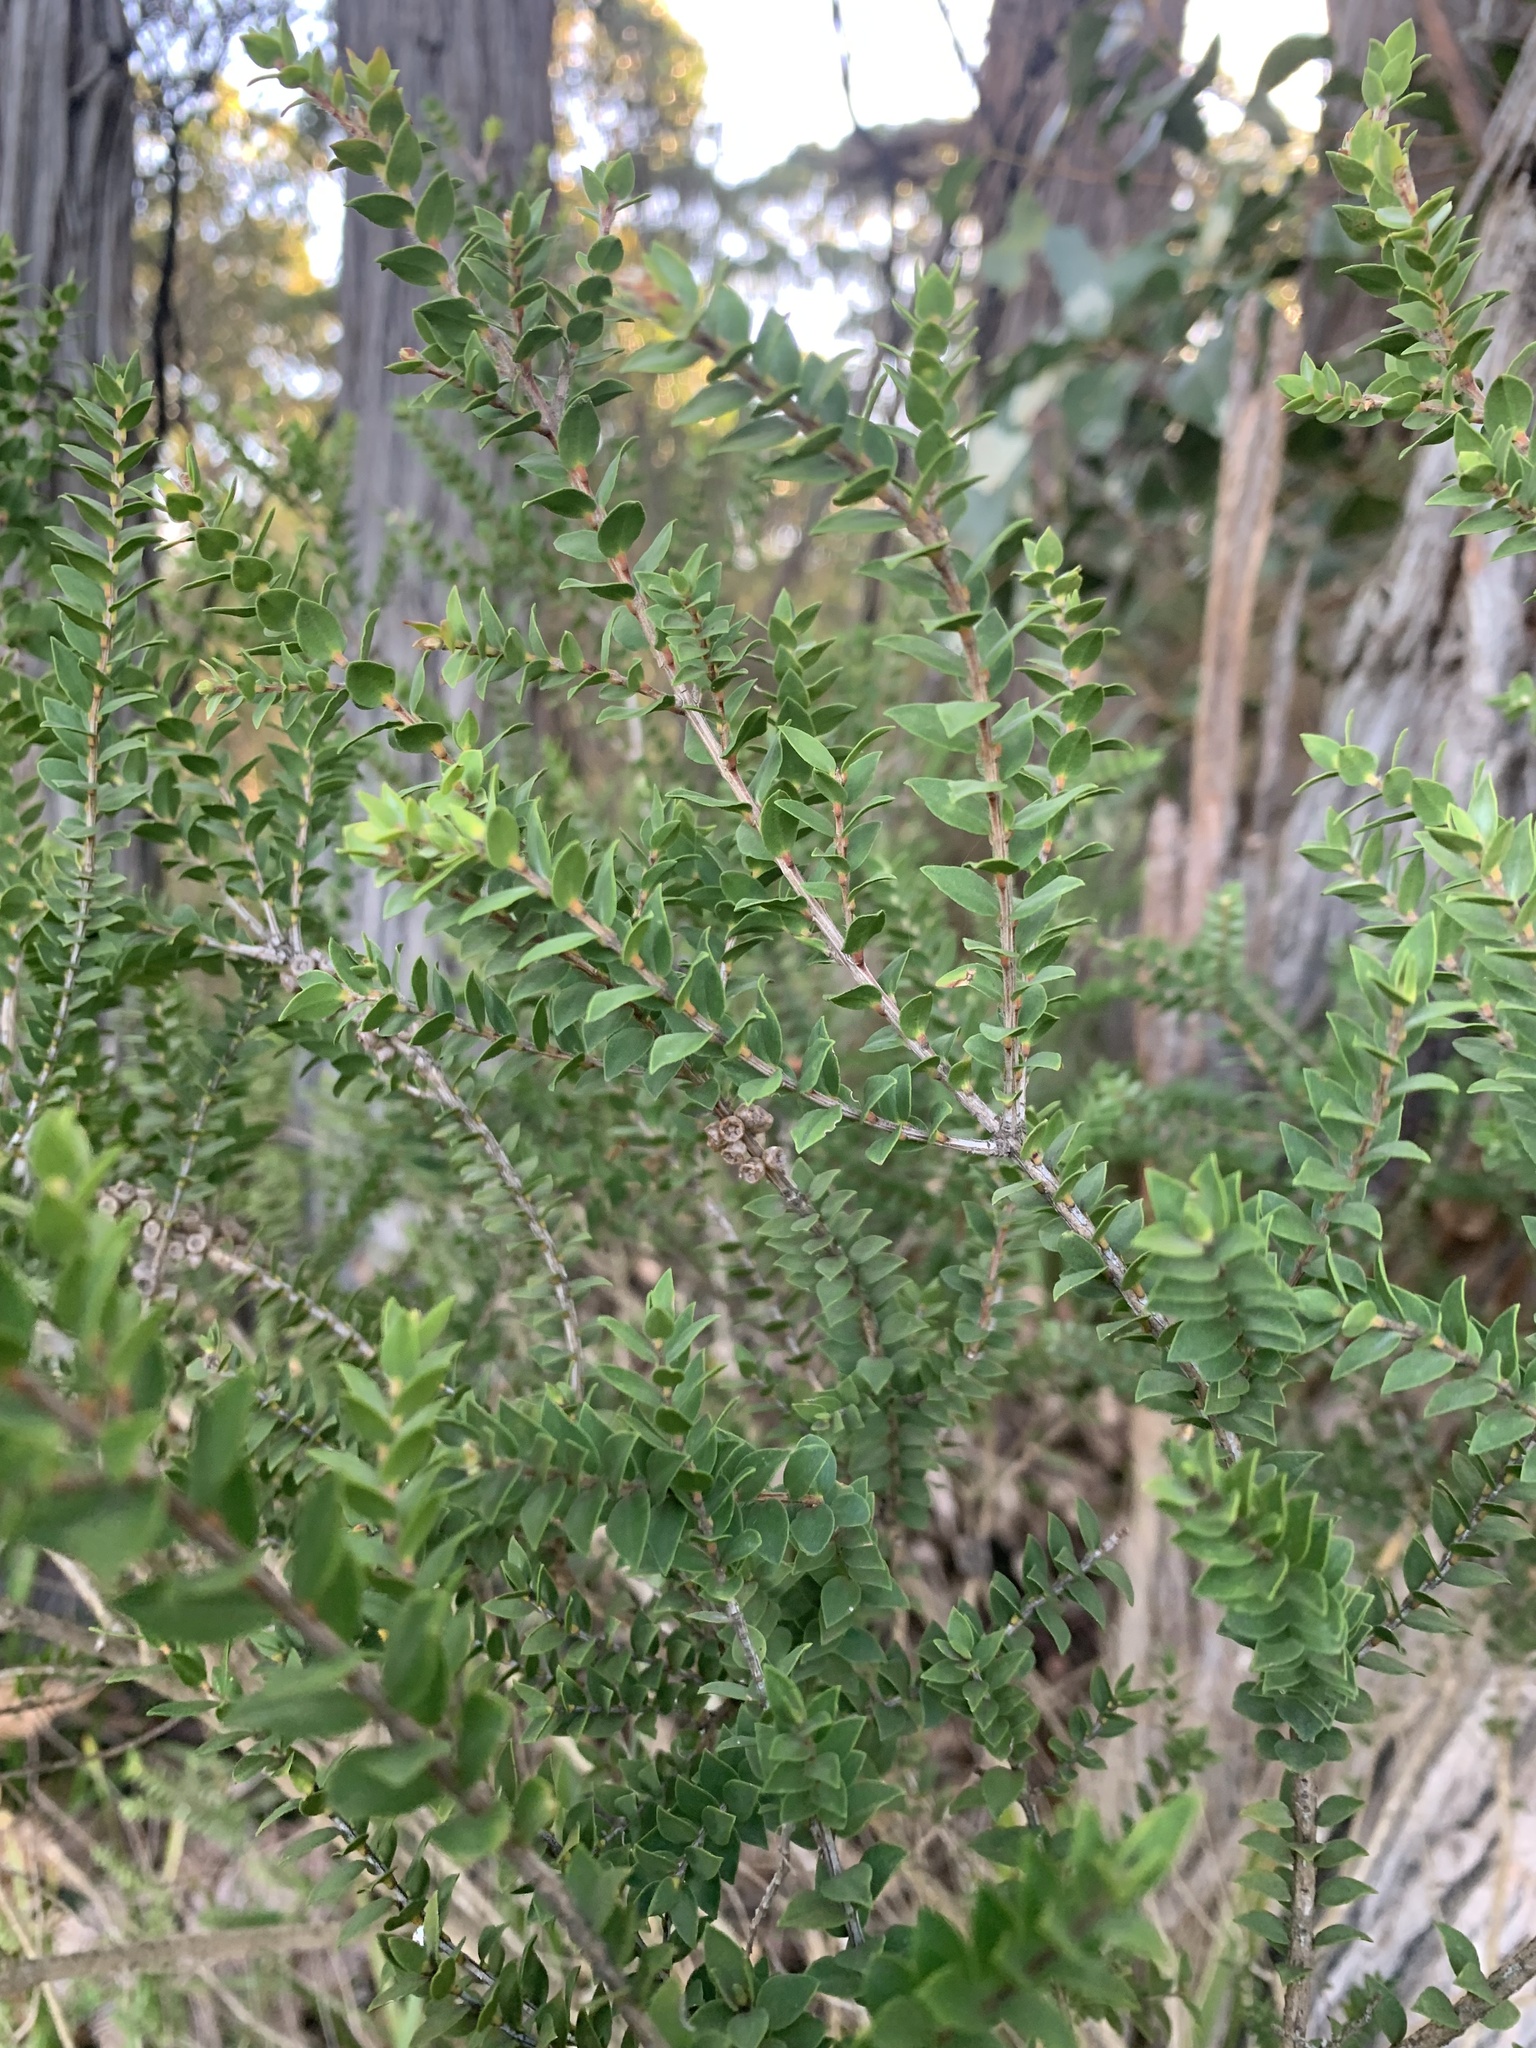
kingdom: Plantae
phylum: Tracheophyta
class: Magnoliopsida
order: Myrtales
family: Myrtaceae
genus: Melaleuca
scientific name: Melaleuca squarrosa
